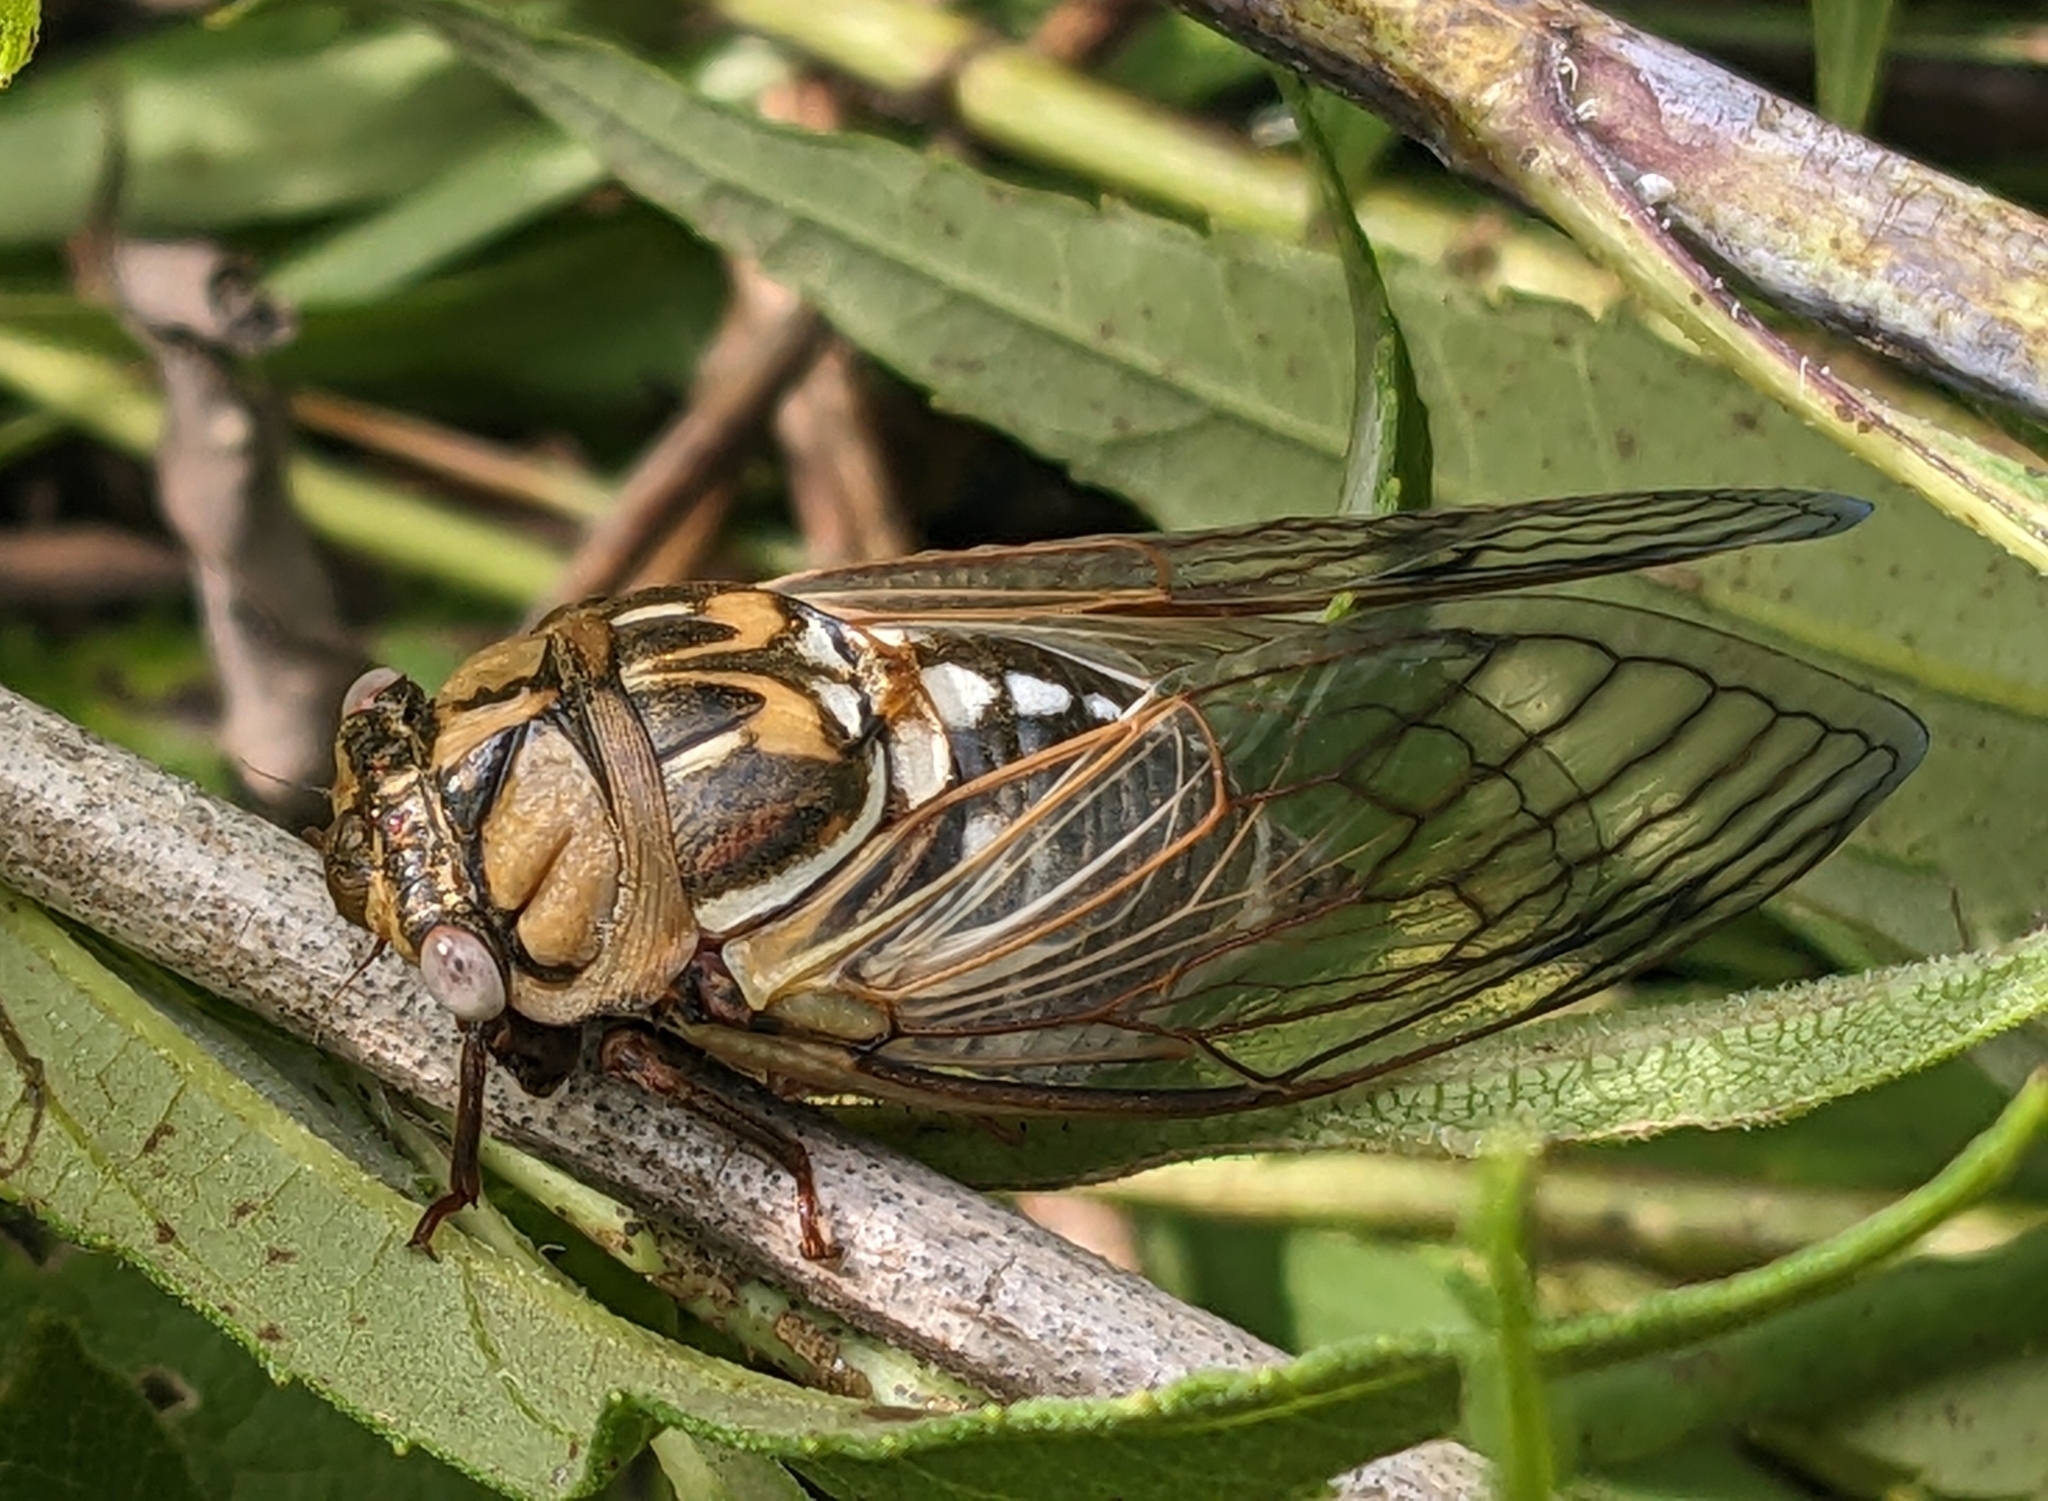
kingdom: Animalia
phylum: Arthropoda
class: Insecta
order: Hemiptera
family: Cicadidae
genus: Megatibicen
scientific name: Megatibicen dorsatus
